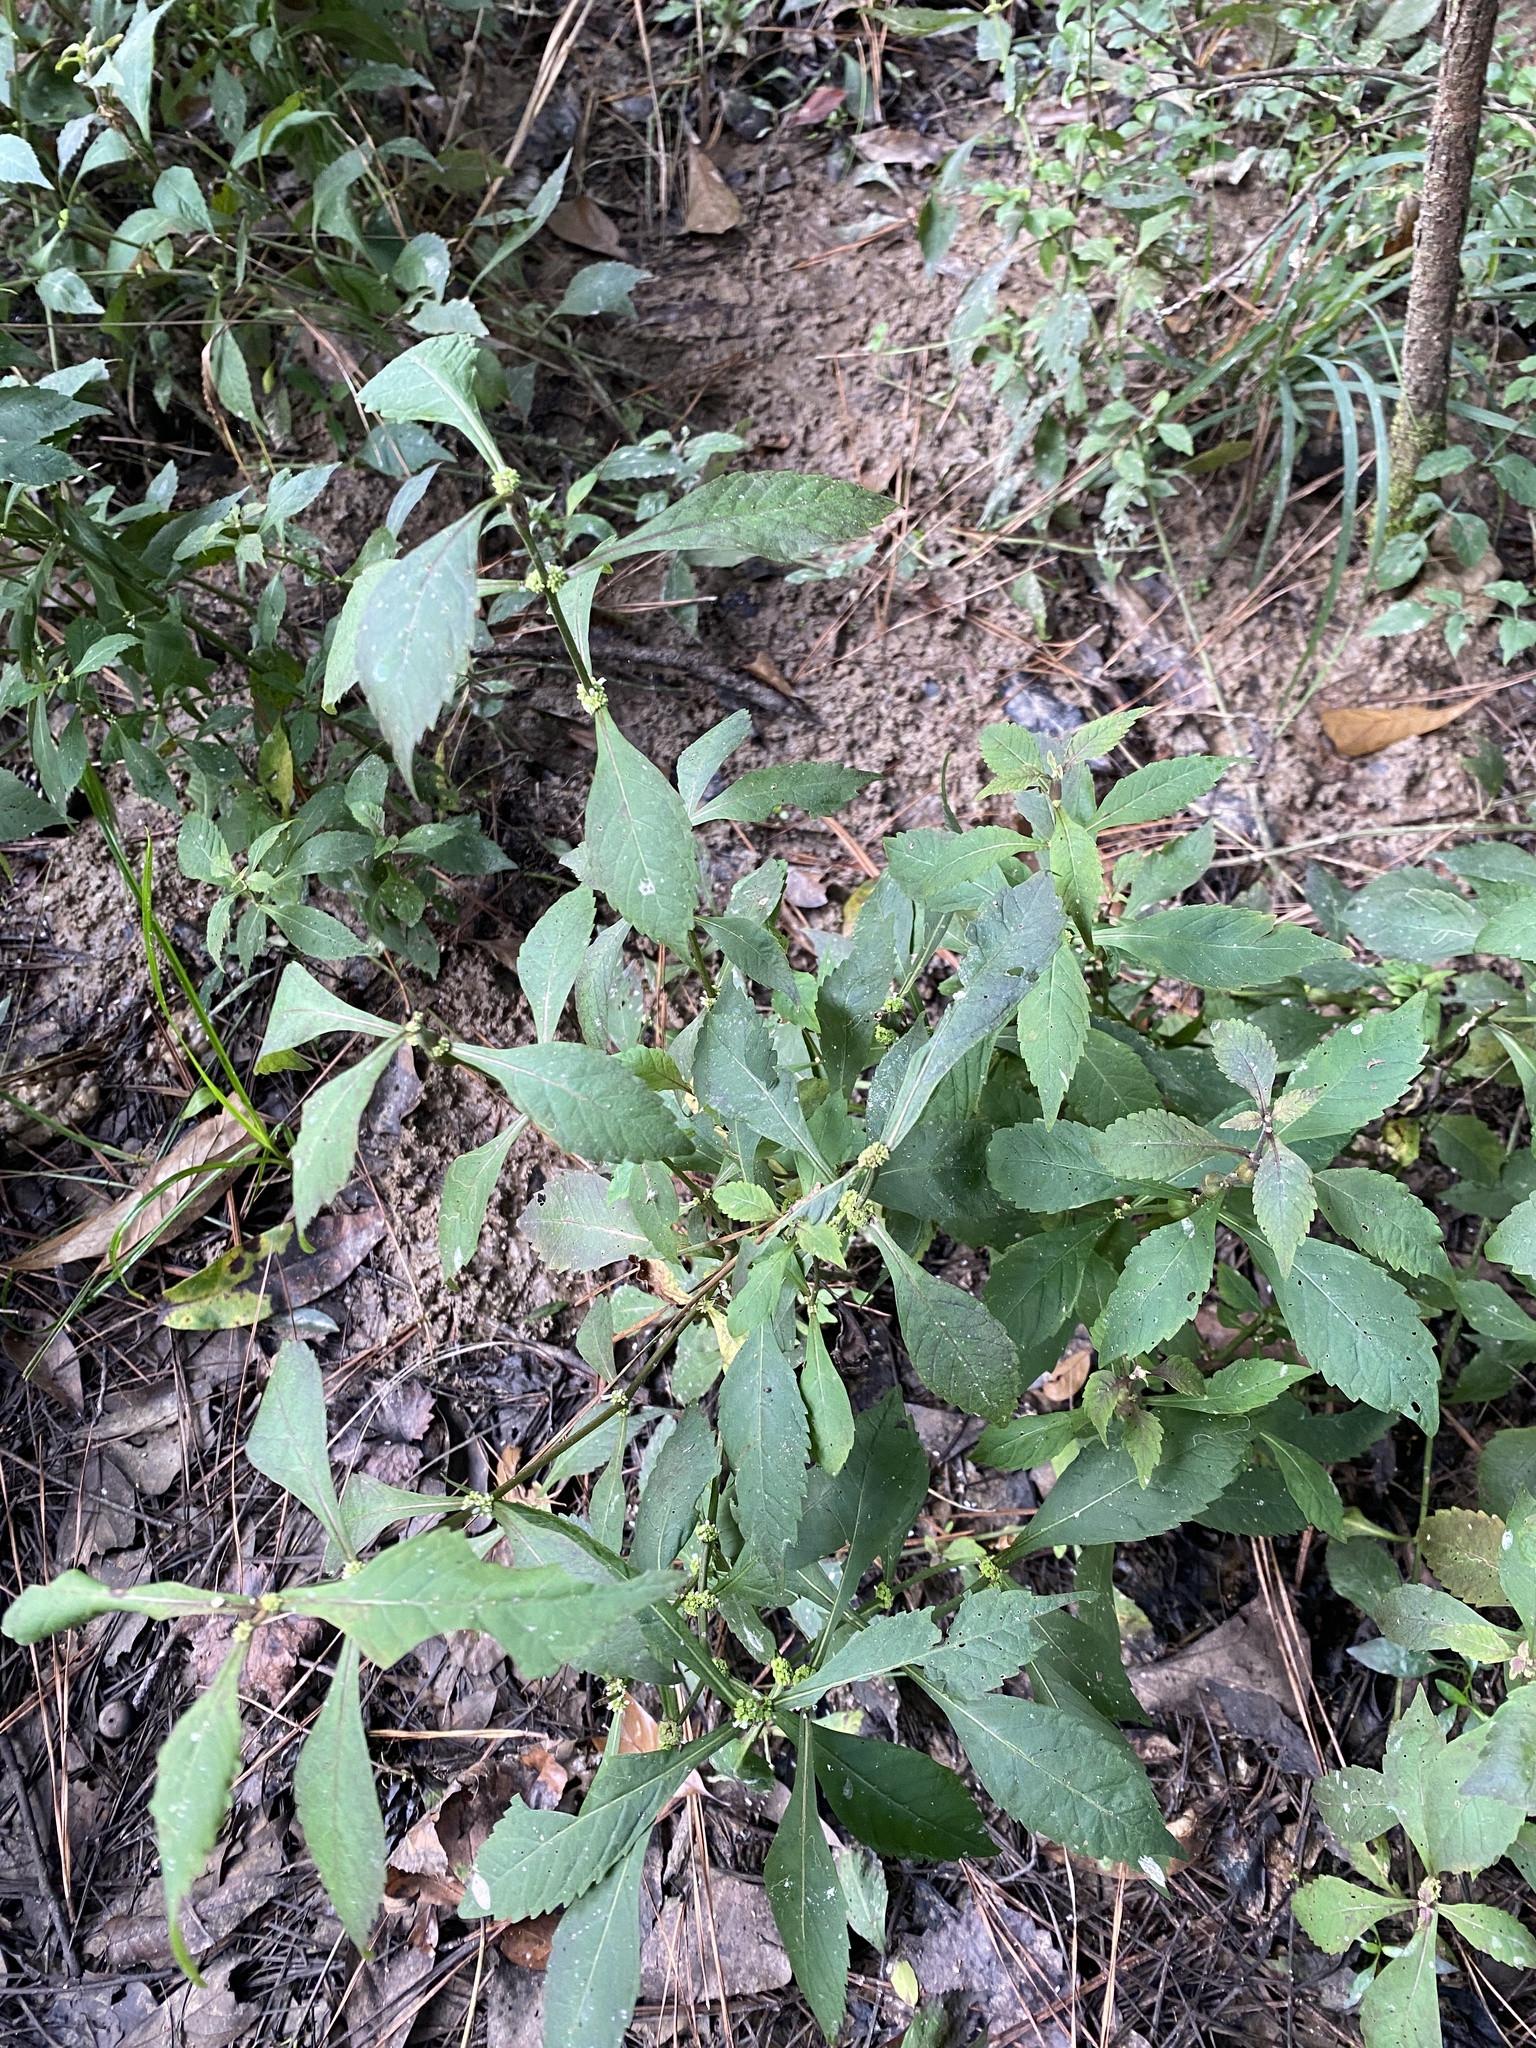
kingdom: Plantae
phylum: Tracheophyta
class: Magnoliopsida
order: Lamiales
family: Lamiaceae
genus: Lycopus
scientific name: Lycopus virginicus
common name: Bugleweed
